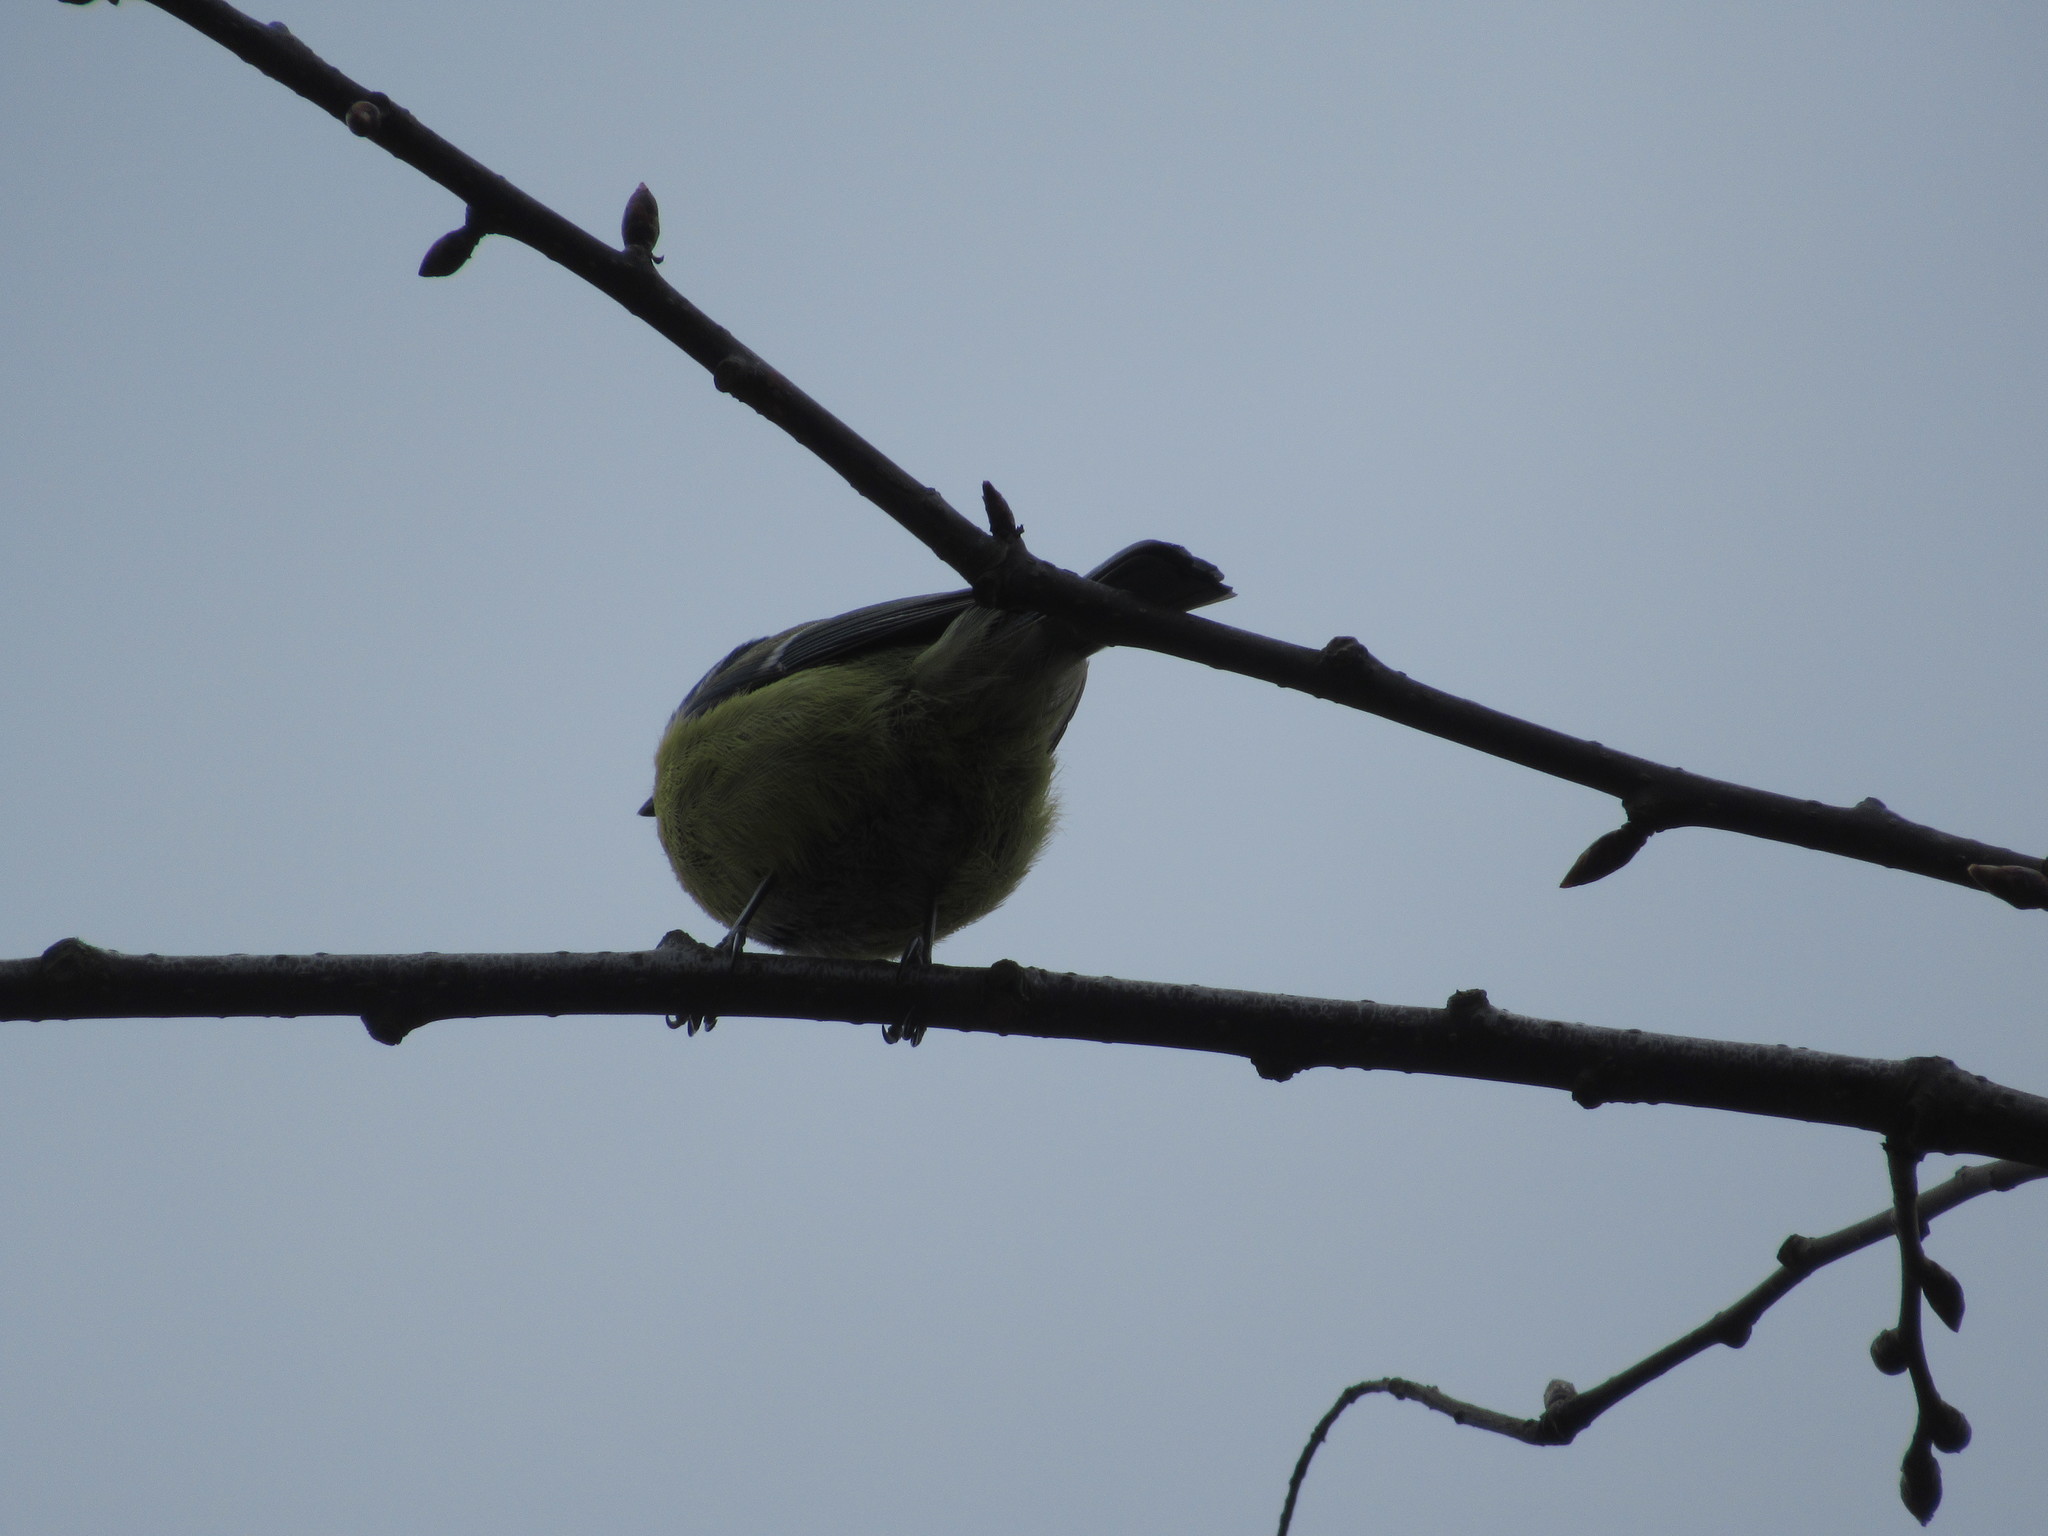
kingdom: Animalia
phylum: Chordata
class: Aves
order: Passeriformes
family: Paridae
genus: Cyanistes
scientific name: Cyanistes caeruleus
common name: Eurasian blue tit
